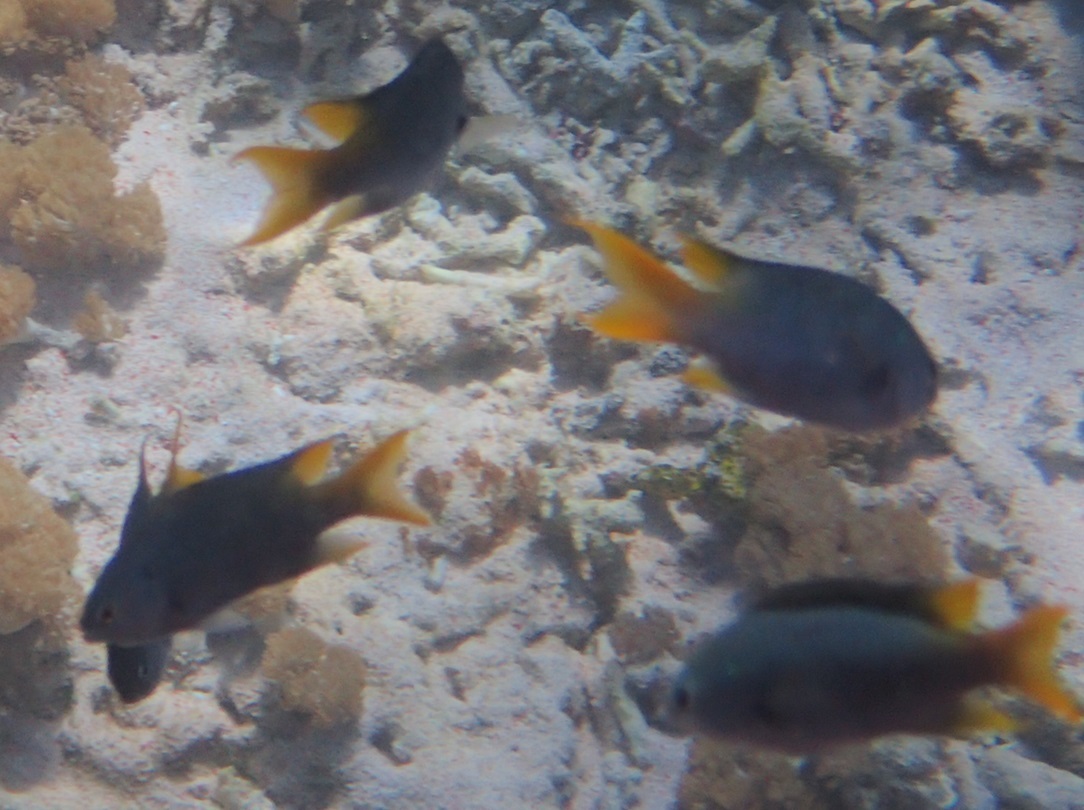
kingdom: Animalia
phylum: Chordata
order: Perciformes
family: Pomacentridae
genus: Neopomacentrus
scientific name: Neopomacentrus azysron
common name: Yellow-tail damsel
